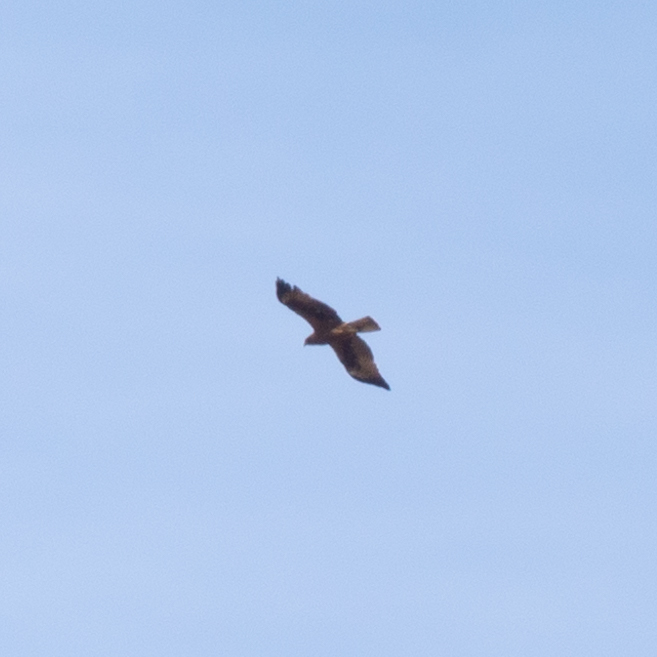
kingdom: Animalia
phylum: Chordata
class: Aves
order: Accipitriformes
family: Accipitridae
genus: Hieraaetus
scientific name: Hieraaetus pennatus
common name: Booted eagle
